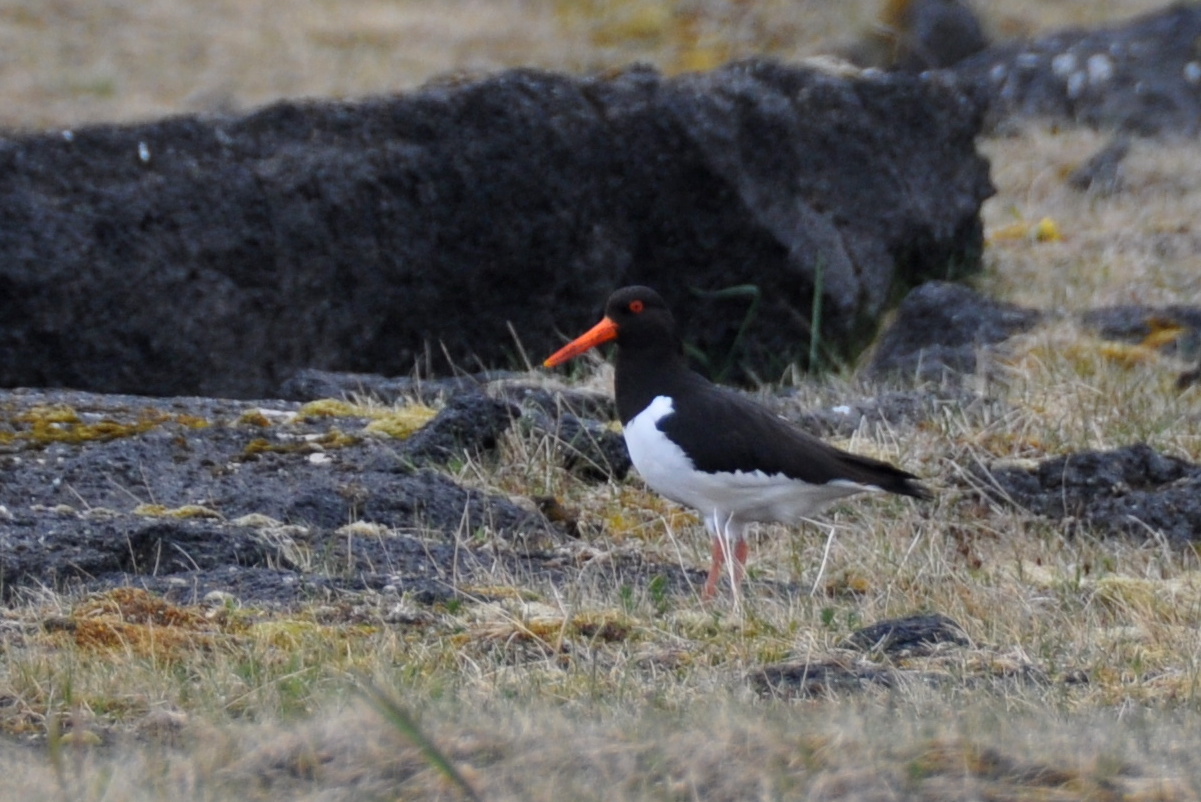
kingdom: Animalia
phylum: Chordata
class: Aves
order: Charadriiformes
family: Haematopodidae
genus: Haematopus
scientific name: Haematopus ostralegus
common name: Eurasian oystercatcher
